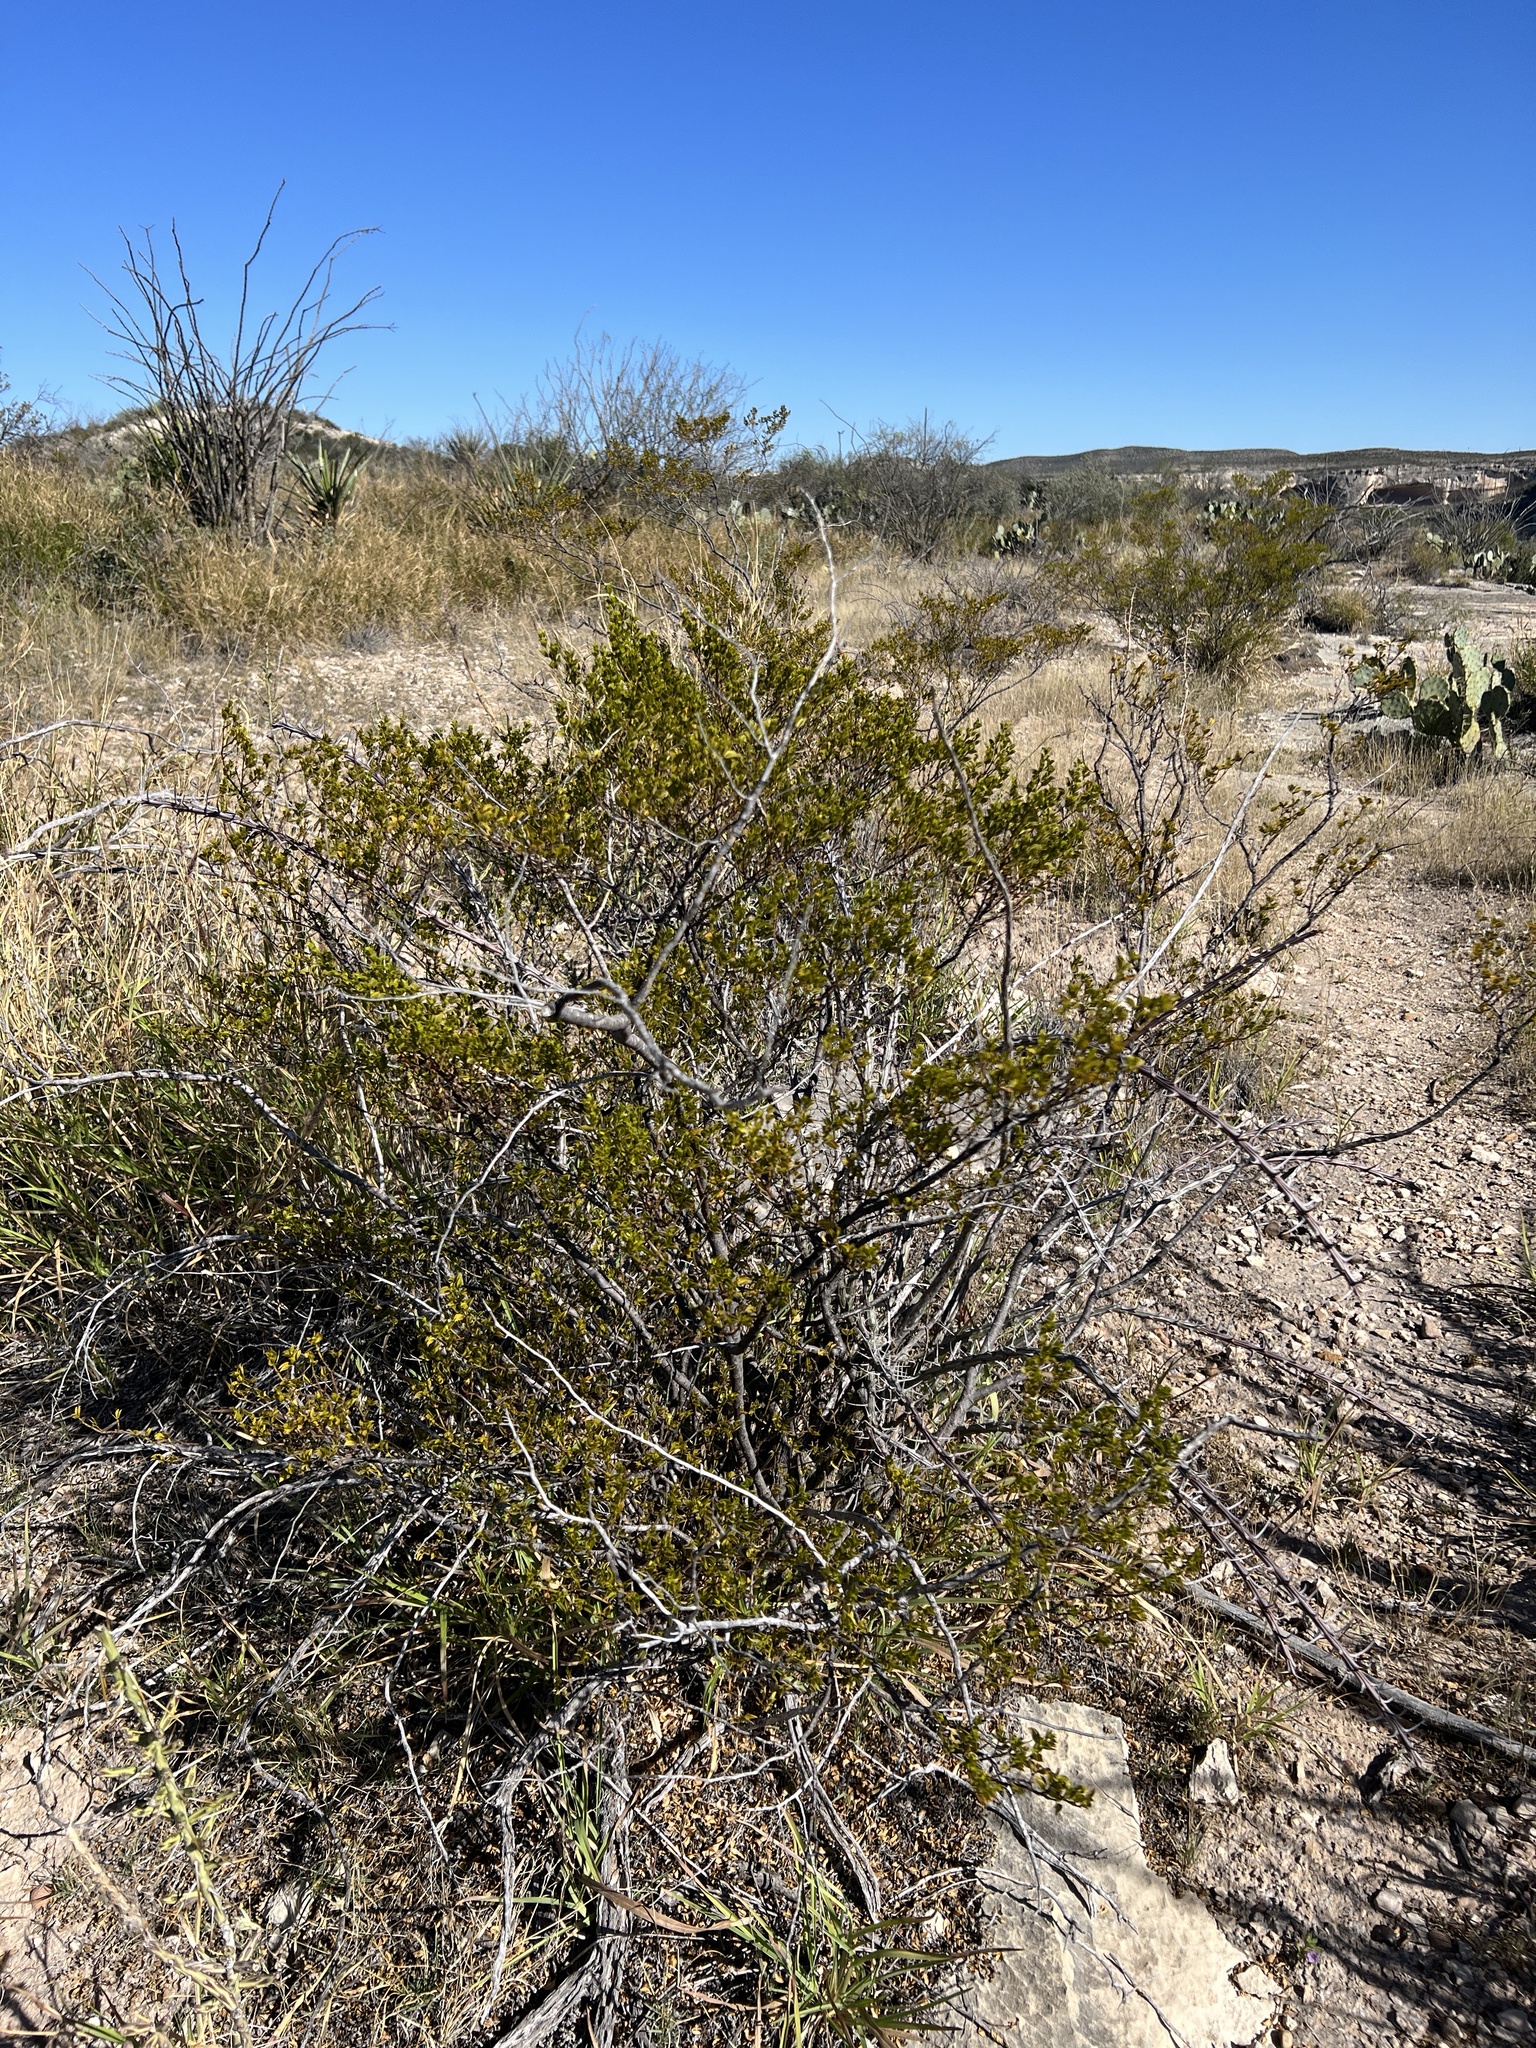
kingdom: Plantae
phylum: Tracheophyta
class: Magnoliopsida
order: Zygophyllales
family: Zygophyllaceae
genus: Larrea
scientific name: Larrea tridentata
